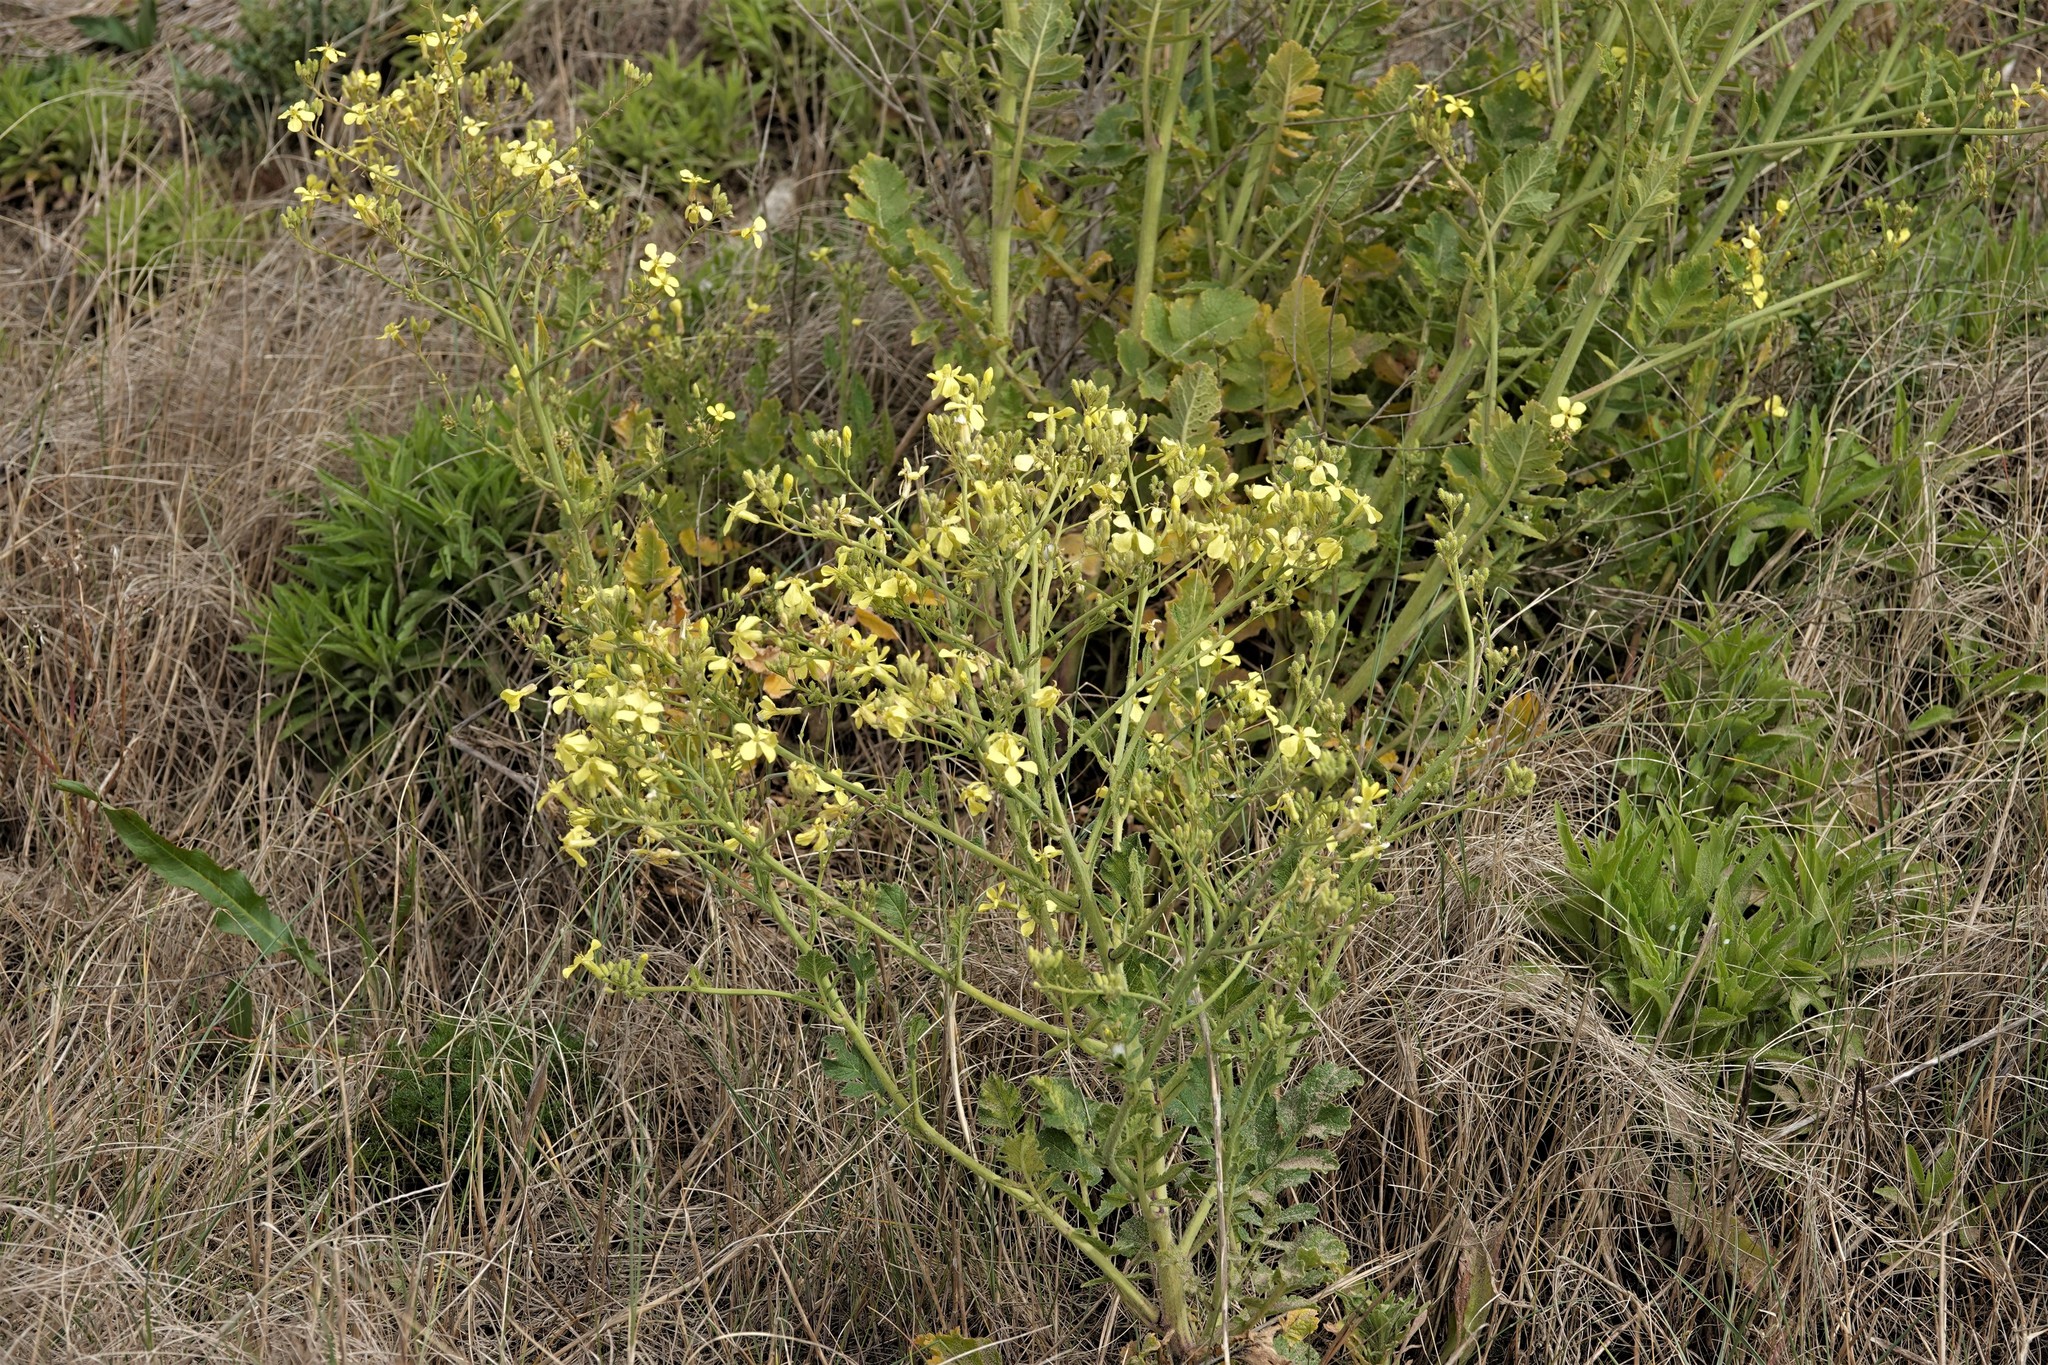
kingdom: Plantae
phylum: Tracheophyta
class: Magnoliopsida
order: Brassicales
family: Brassicaceae
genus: Raphanus
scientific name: Raphanus raphanistrum
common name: Wild radish
